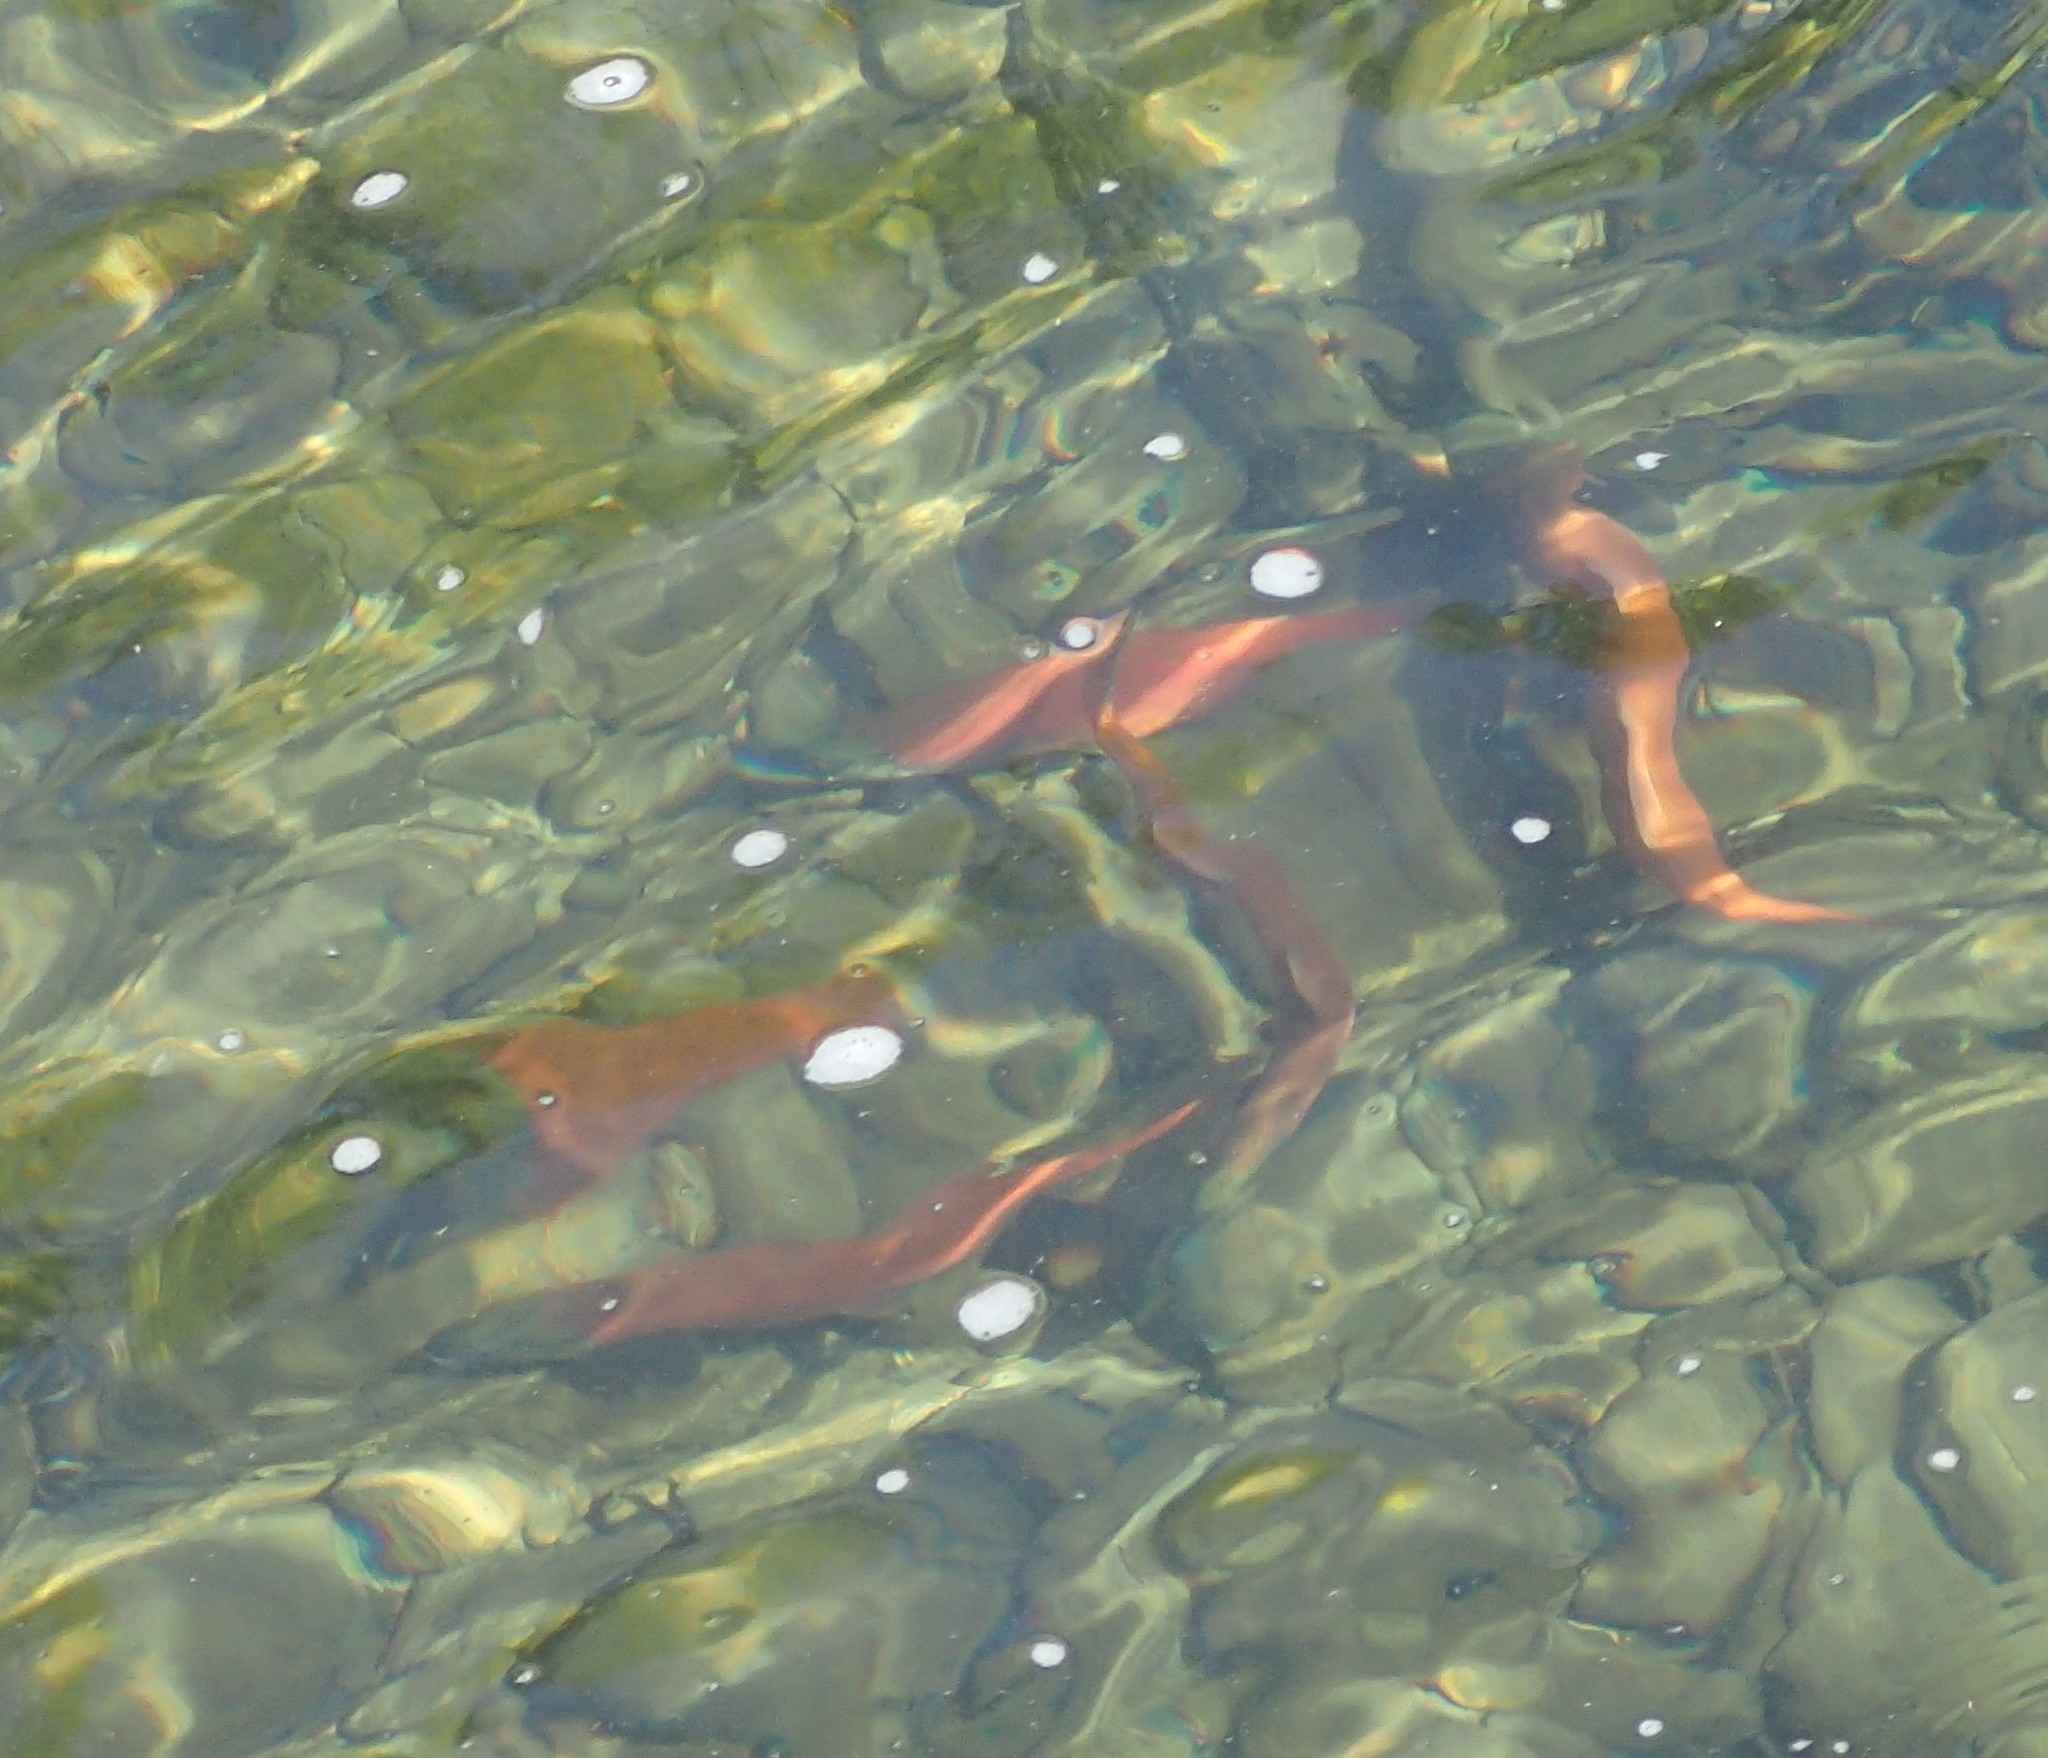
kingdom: Animalia
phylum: Chordata
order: Salmoniformes
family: Salmonidae
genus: Oncorhynchus
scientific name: Oncorhynchus nerka
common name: Sockeye salmon
